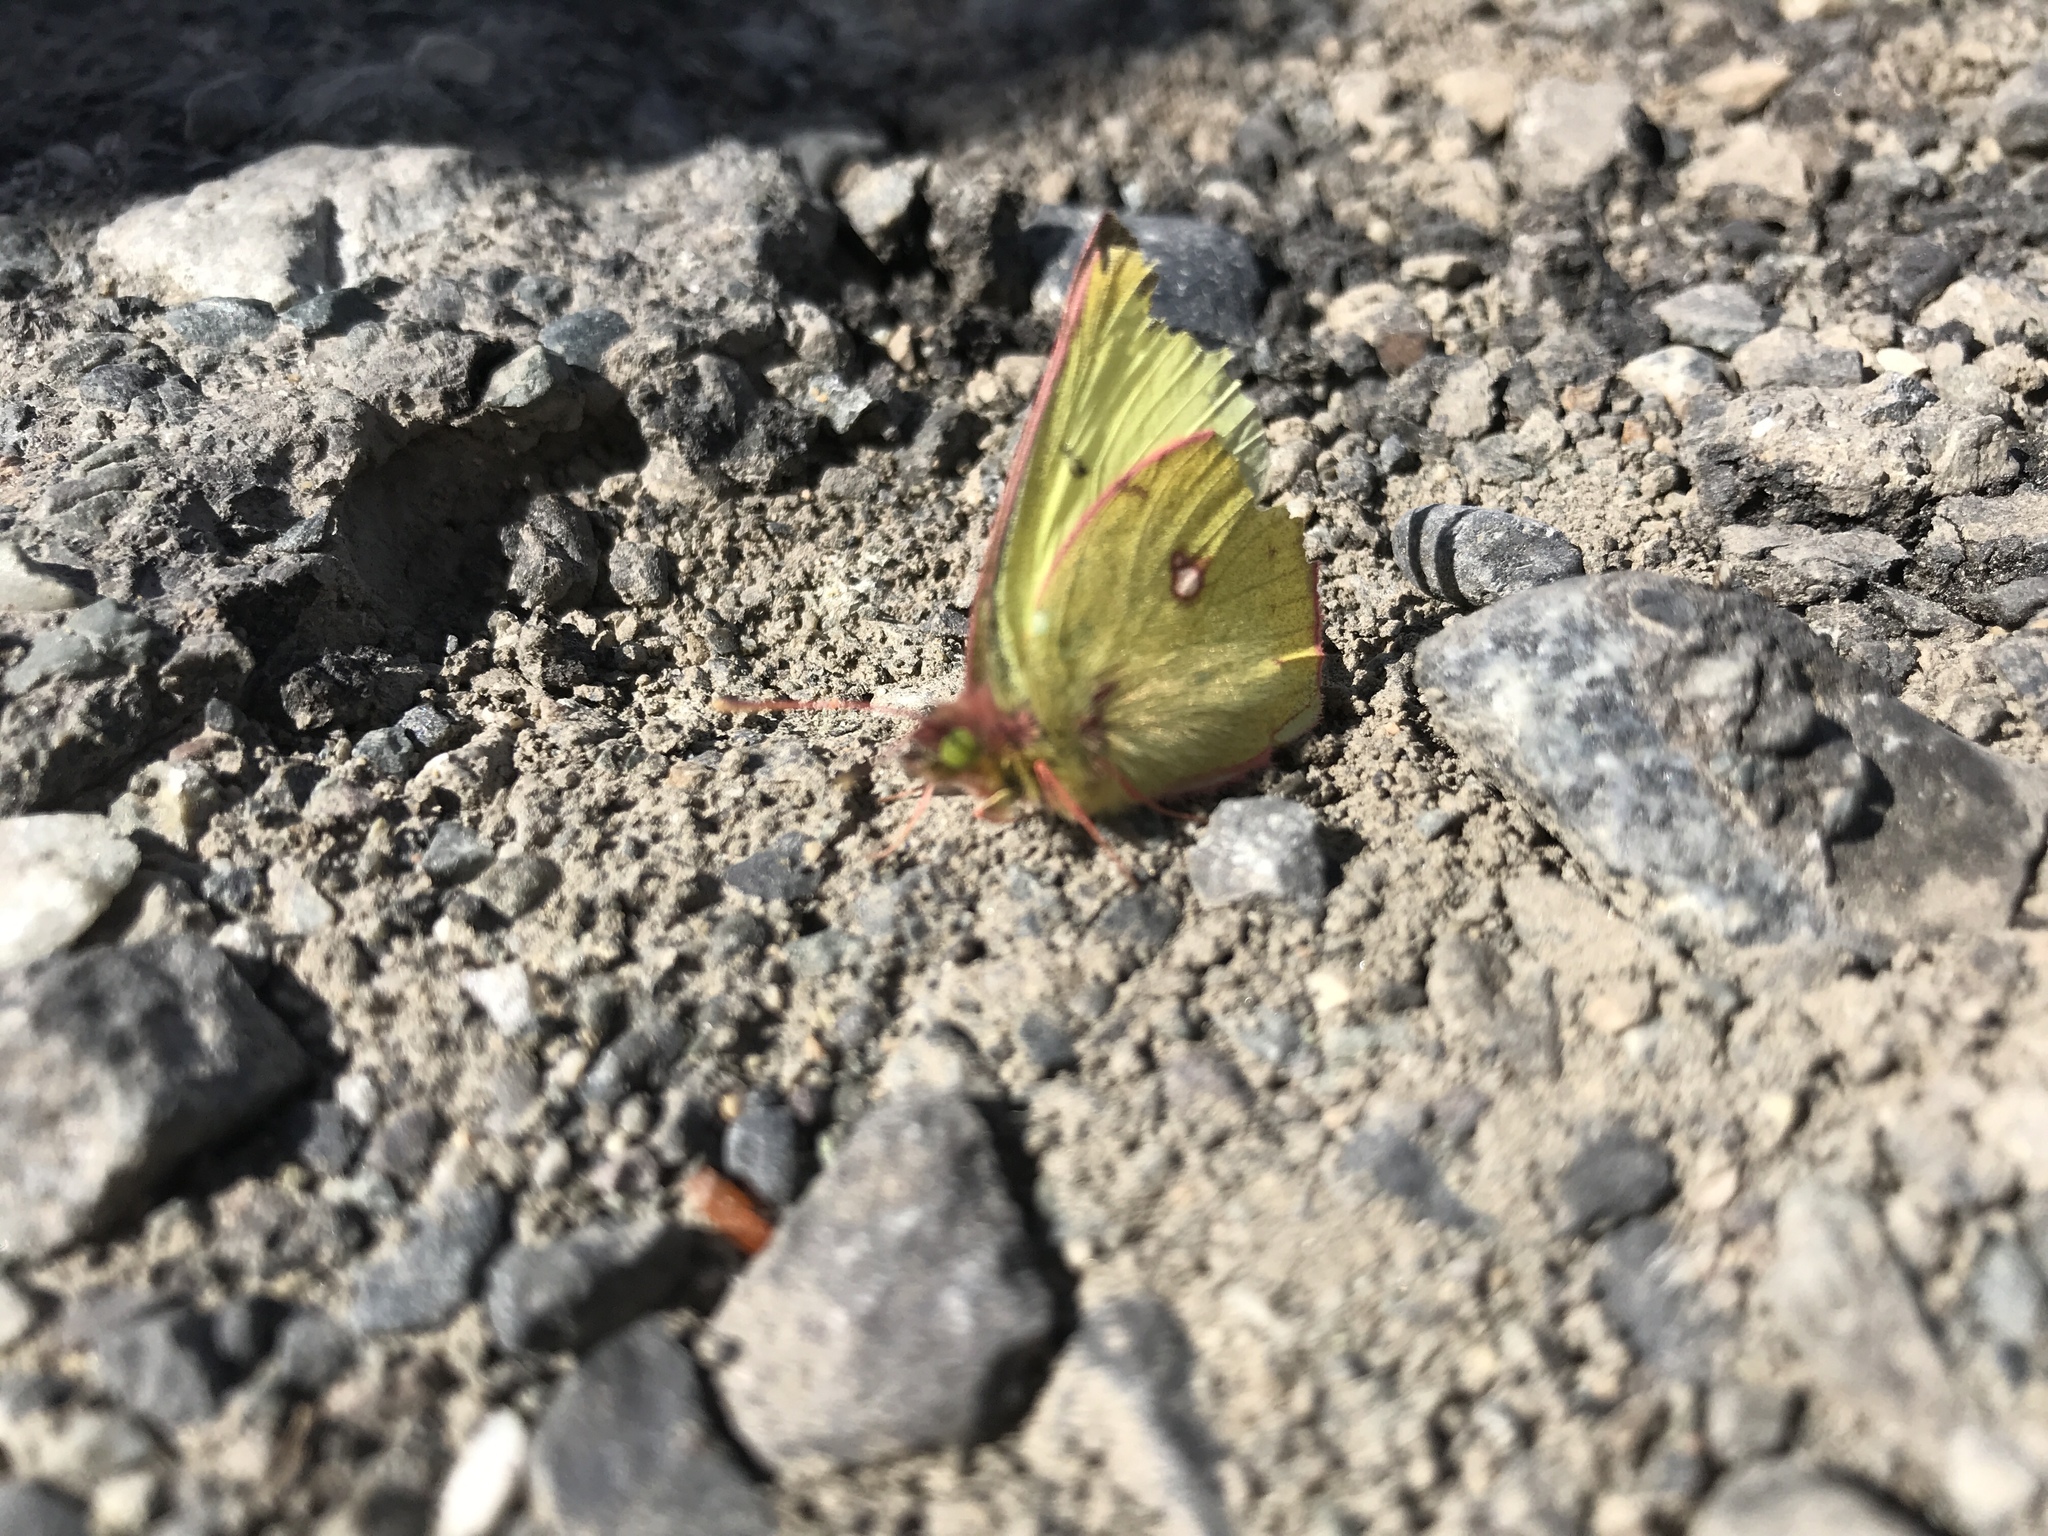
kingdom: Animalia
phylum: Arthropoda
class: Insecta
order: Lepidoptera
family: Pieridae
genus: Colias
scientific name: Colias philodice
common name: Clouded sulphur
